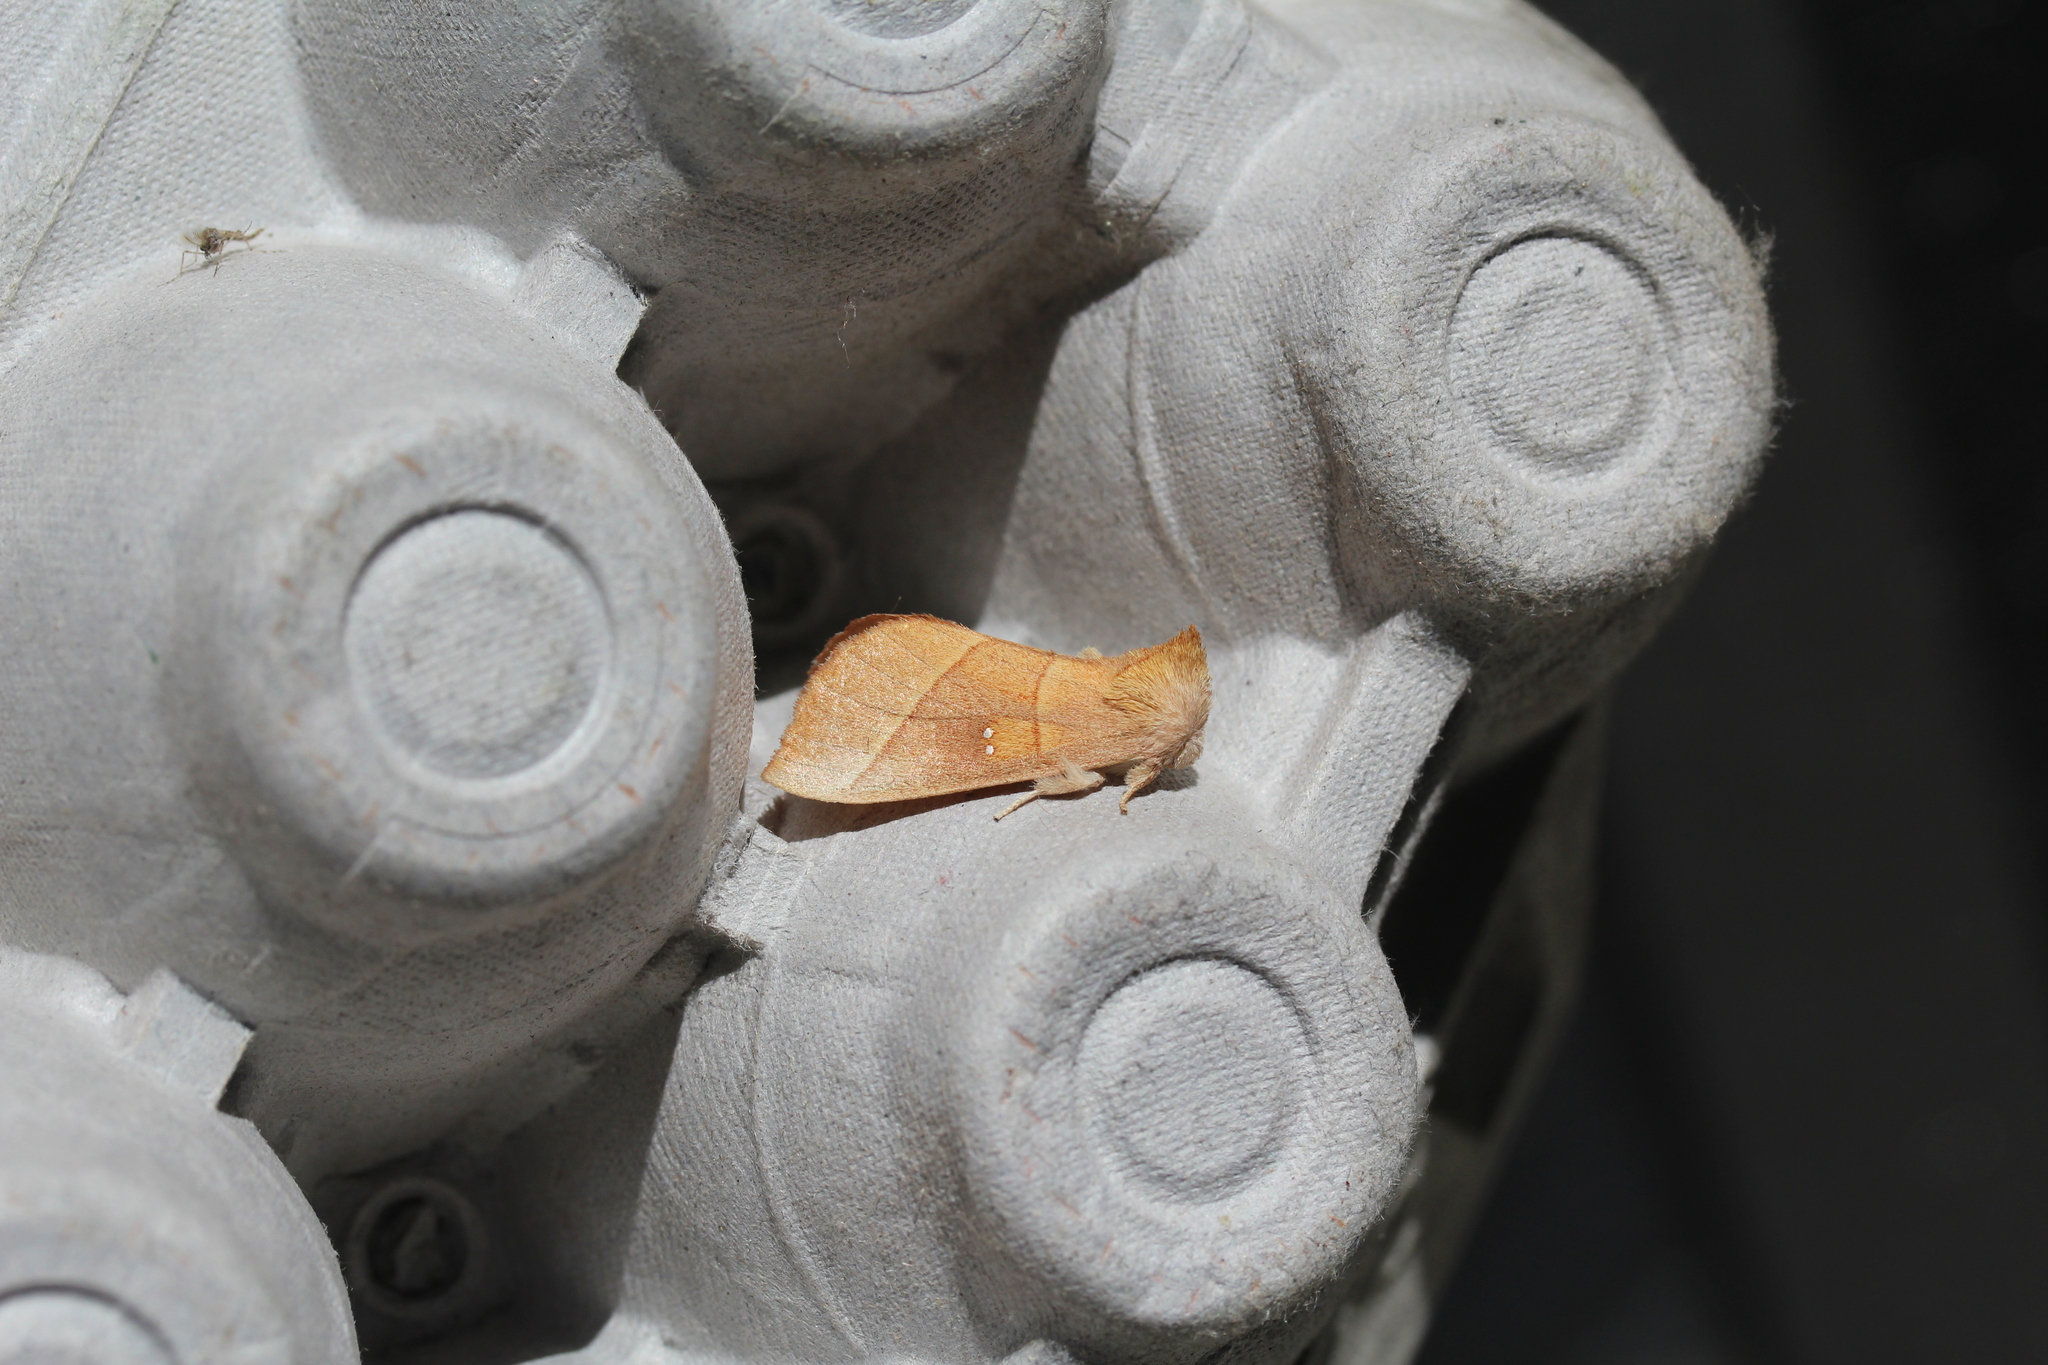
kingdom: Animalia
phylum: Arthropoda
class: Insecta
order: Lepidoptera
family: Notodontidae
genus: Nadata
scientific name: Nadata gibbosa
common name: White-dotted prominent
